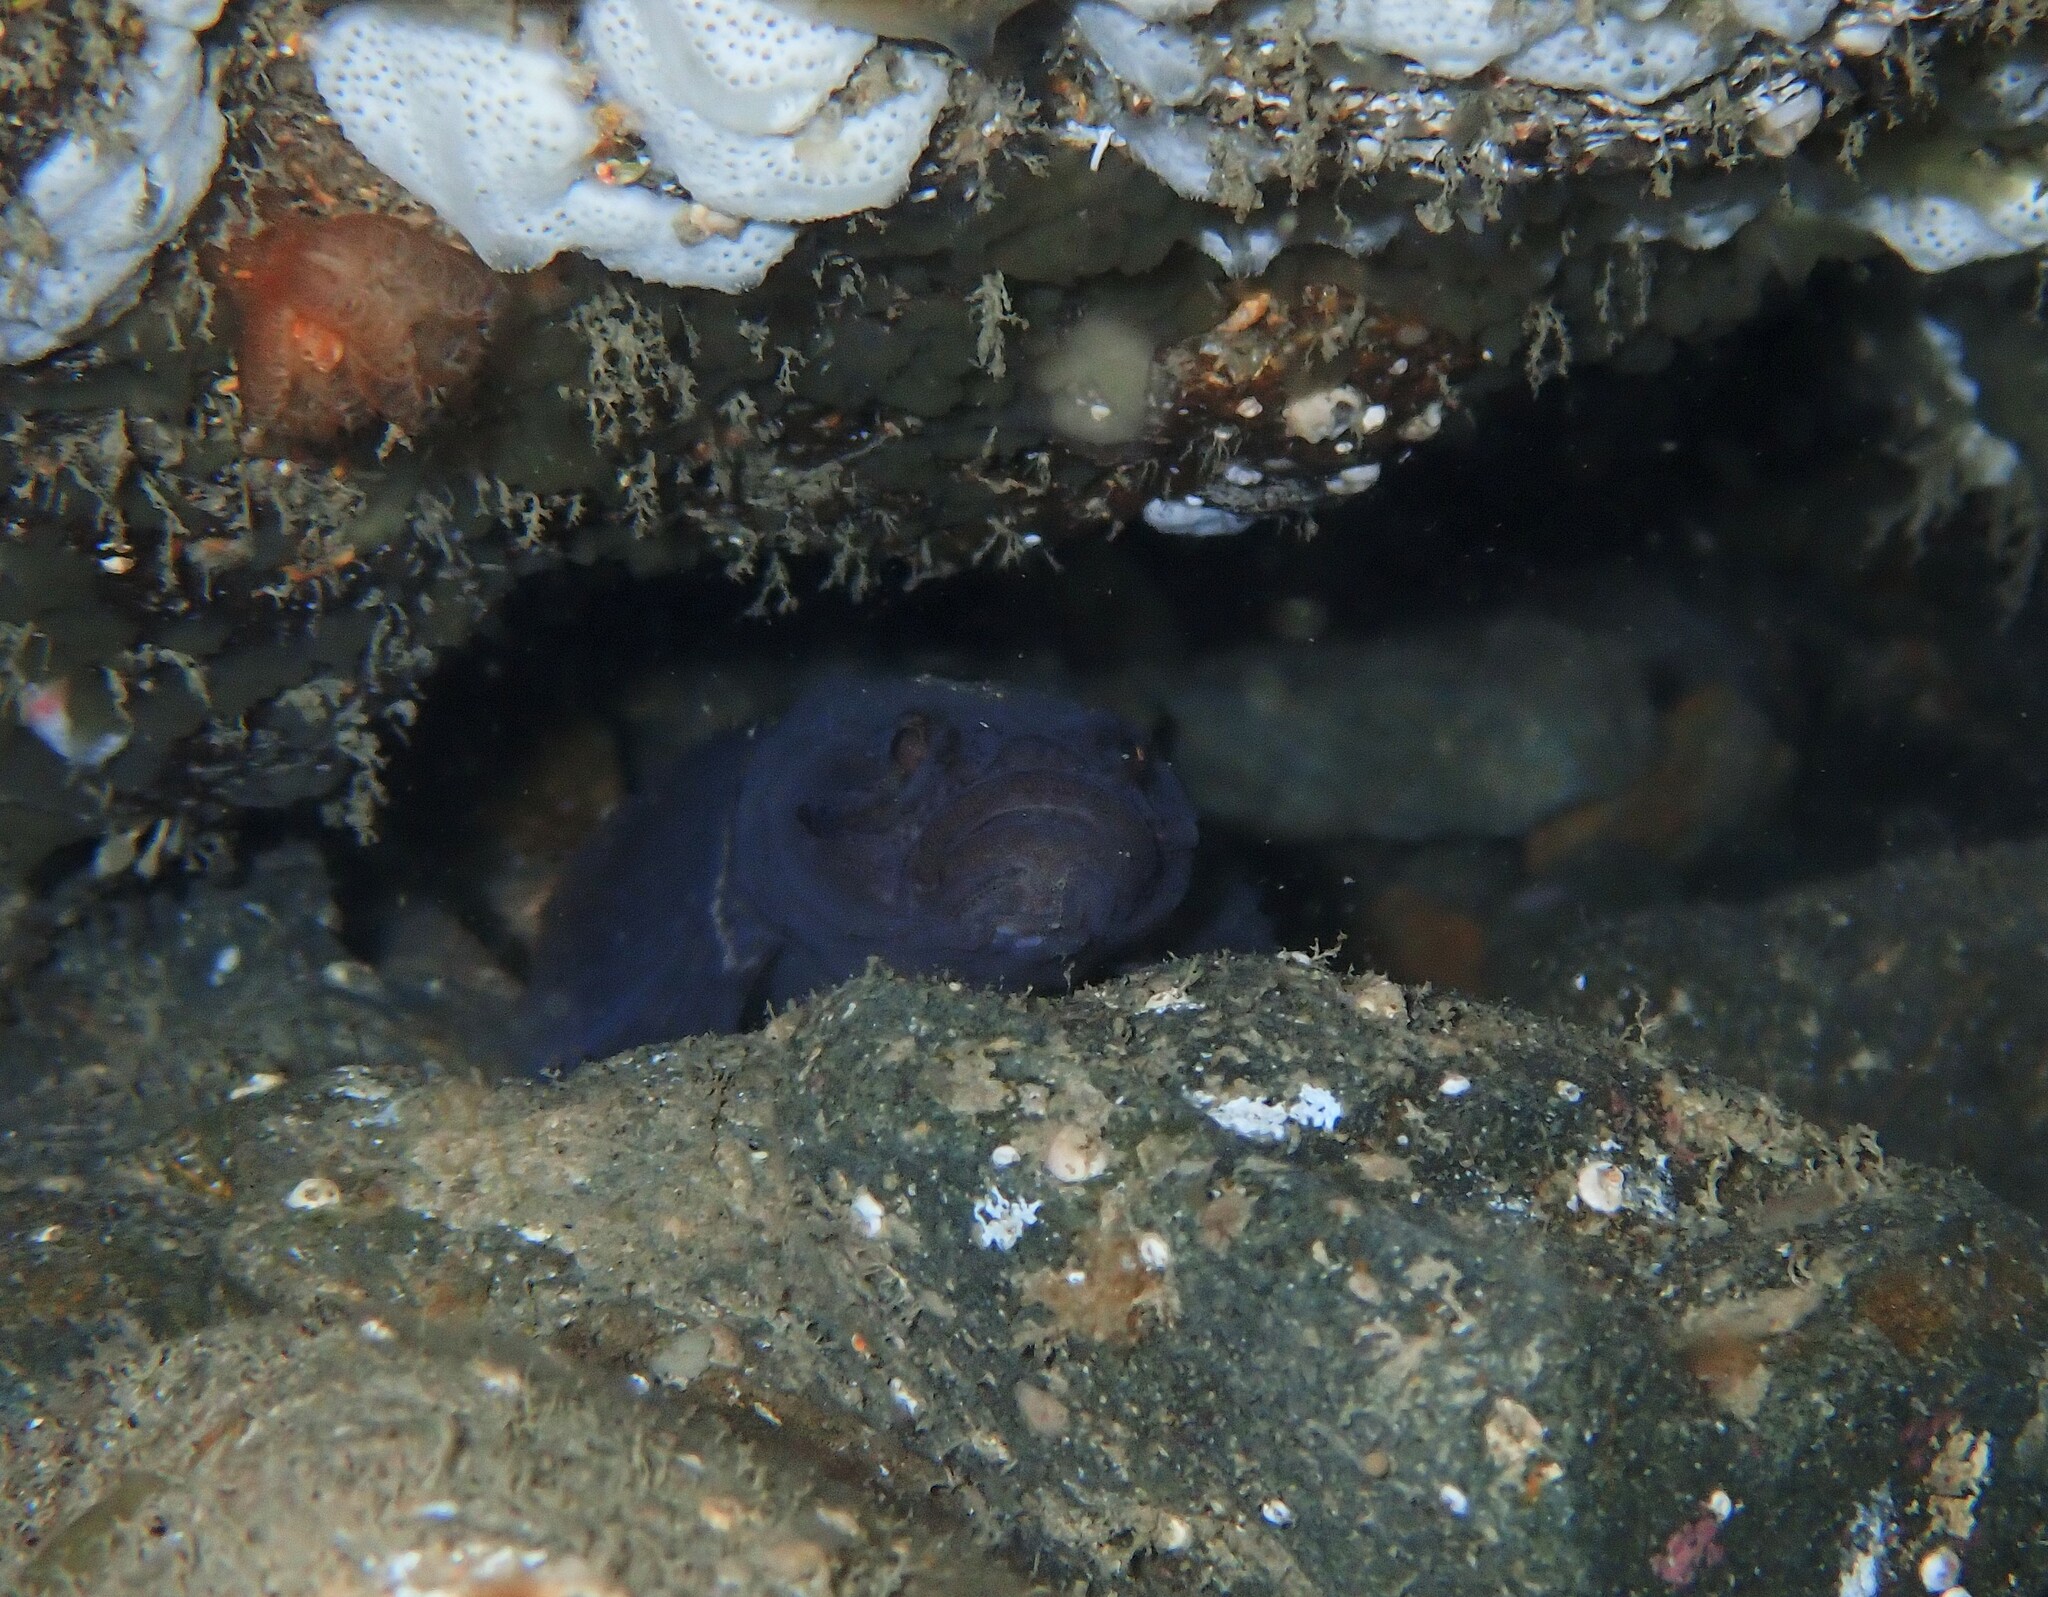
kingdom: Animalia
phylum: Chordata
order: Perciformes
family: Gobiidae
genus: Gobiopsis
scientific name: Gobiopsis atrata
